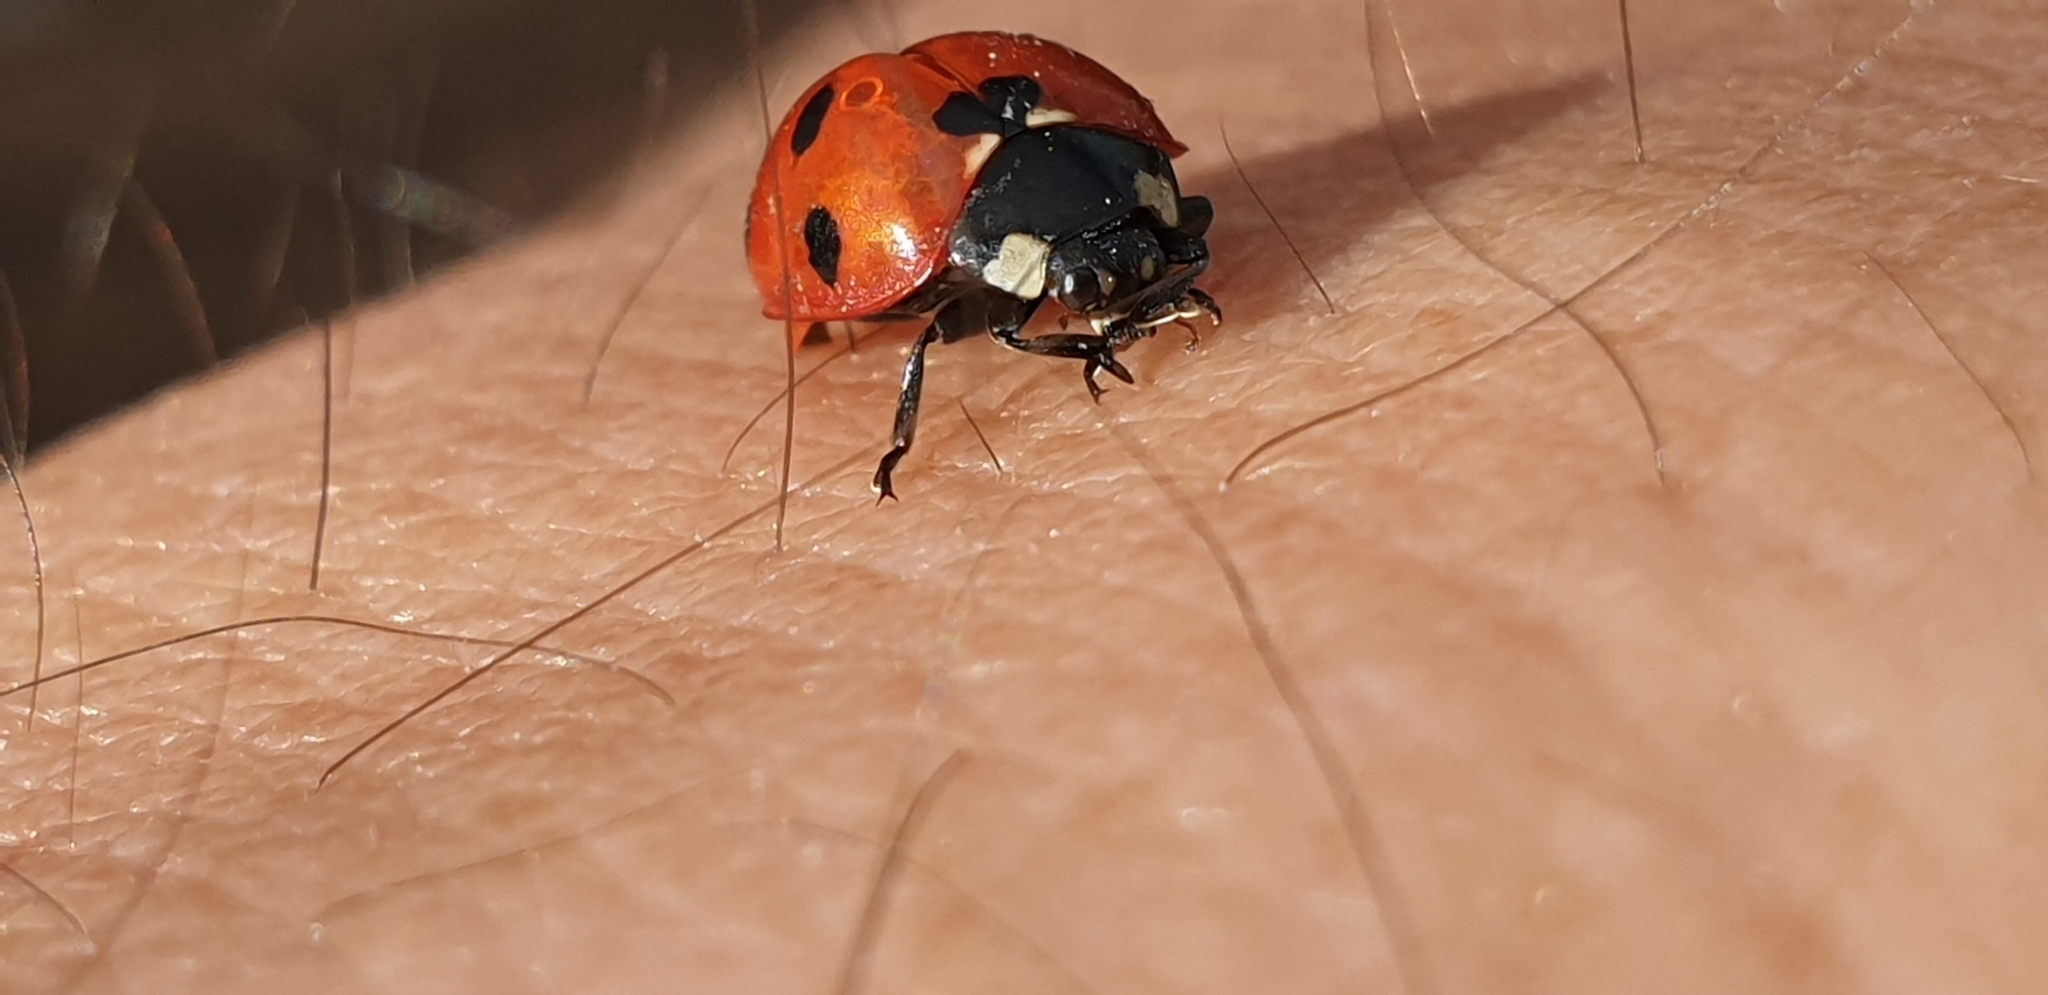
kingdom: Animalia
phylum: Arthropoda
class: Insecta
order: Coleoptera
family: Coccinellidae
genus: Coccinella
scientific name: Coccinella septempunctata
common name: Sevenspotted lady beetle
